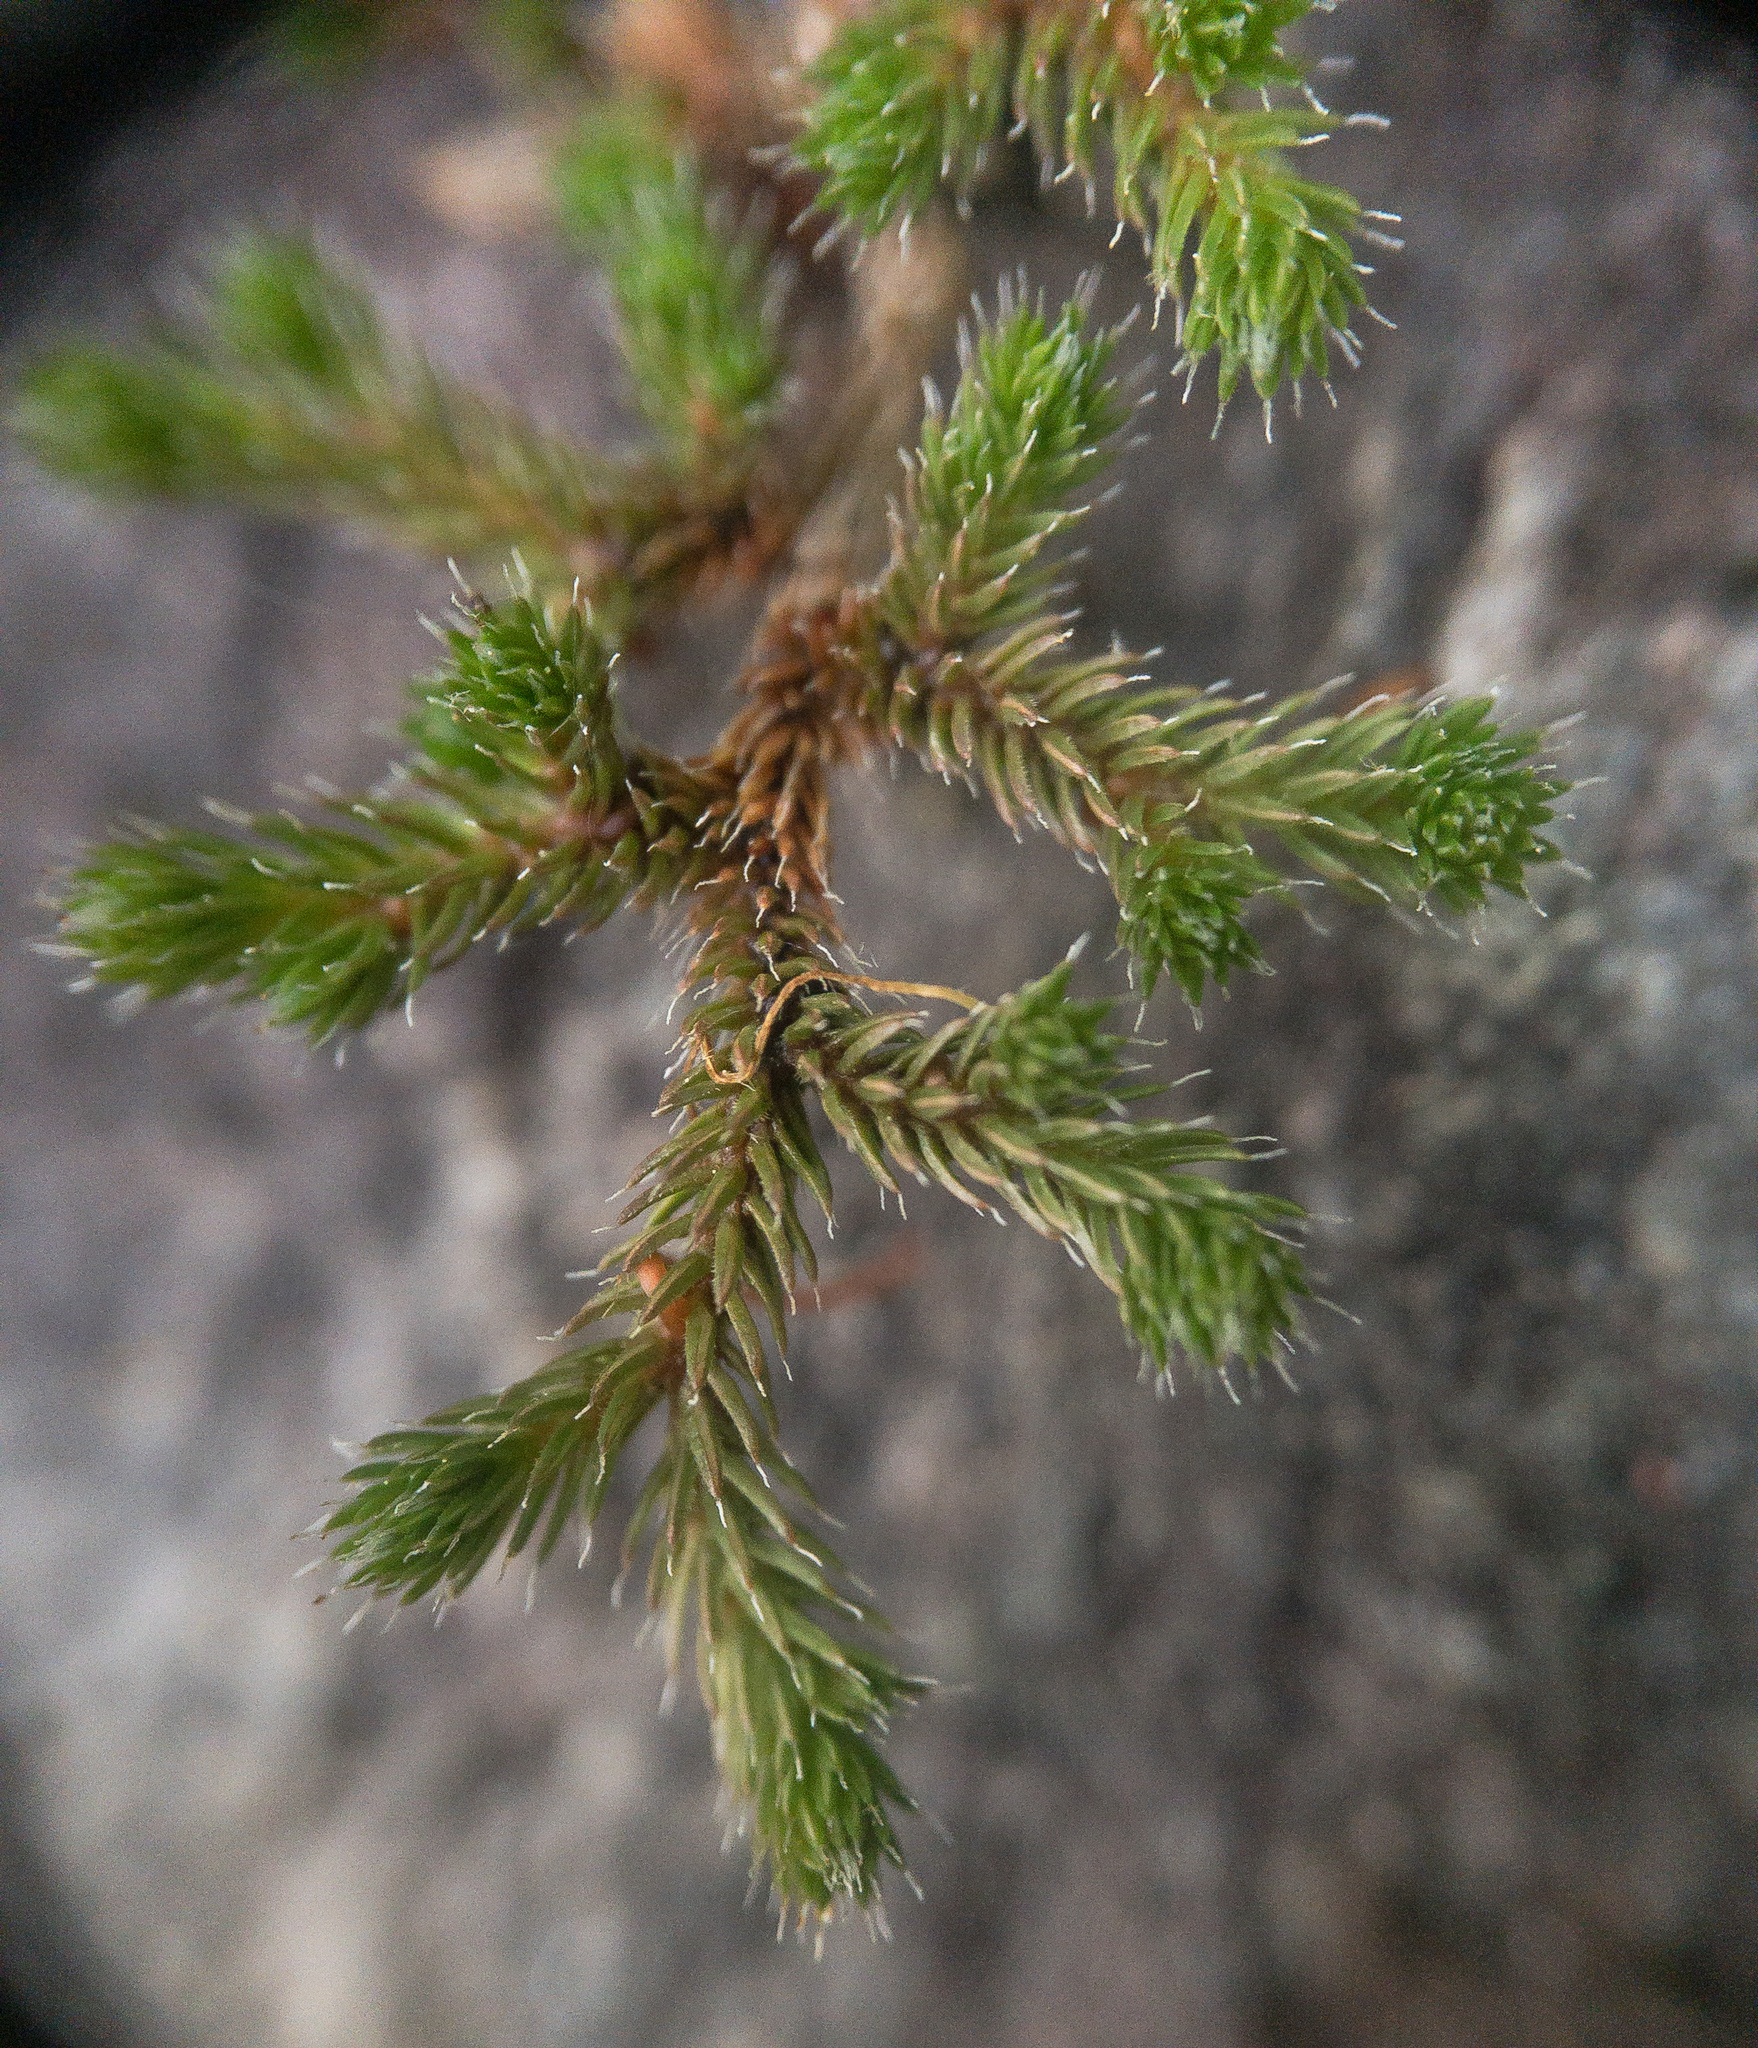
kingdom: Plantae
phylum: Tracheophyta
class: Lycopodiopsida
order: Selaginellales
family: Selaginellaceae
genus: Selaginella
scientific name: Selaginella rupestris
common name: Dwarf spikemoss
